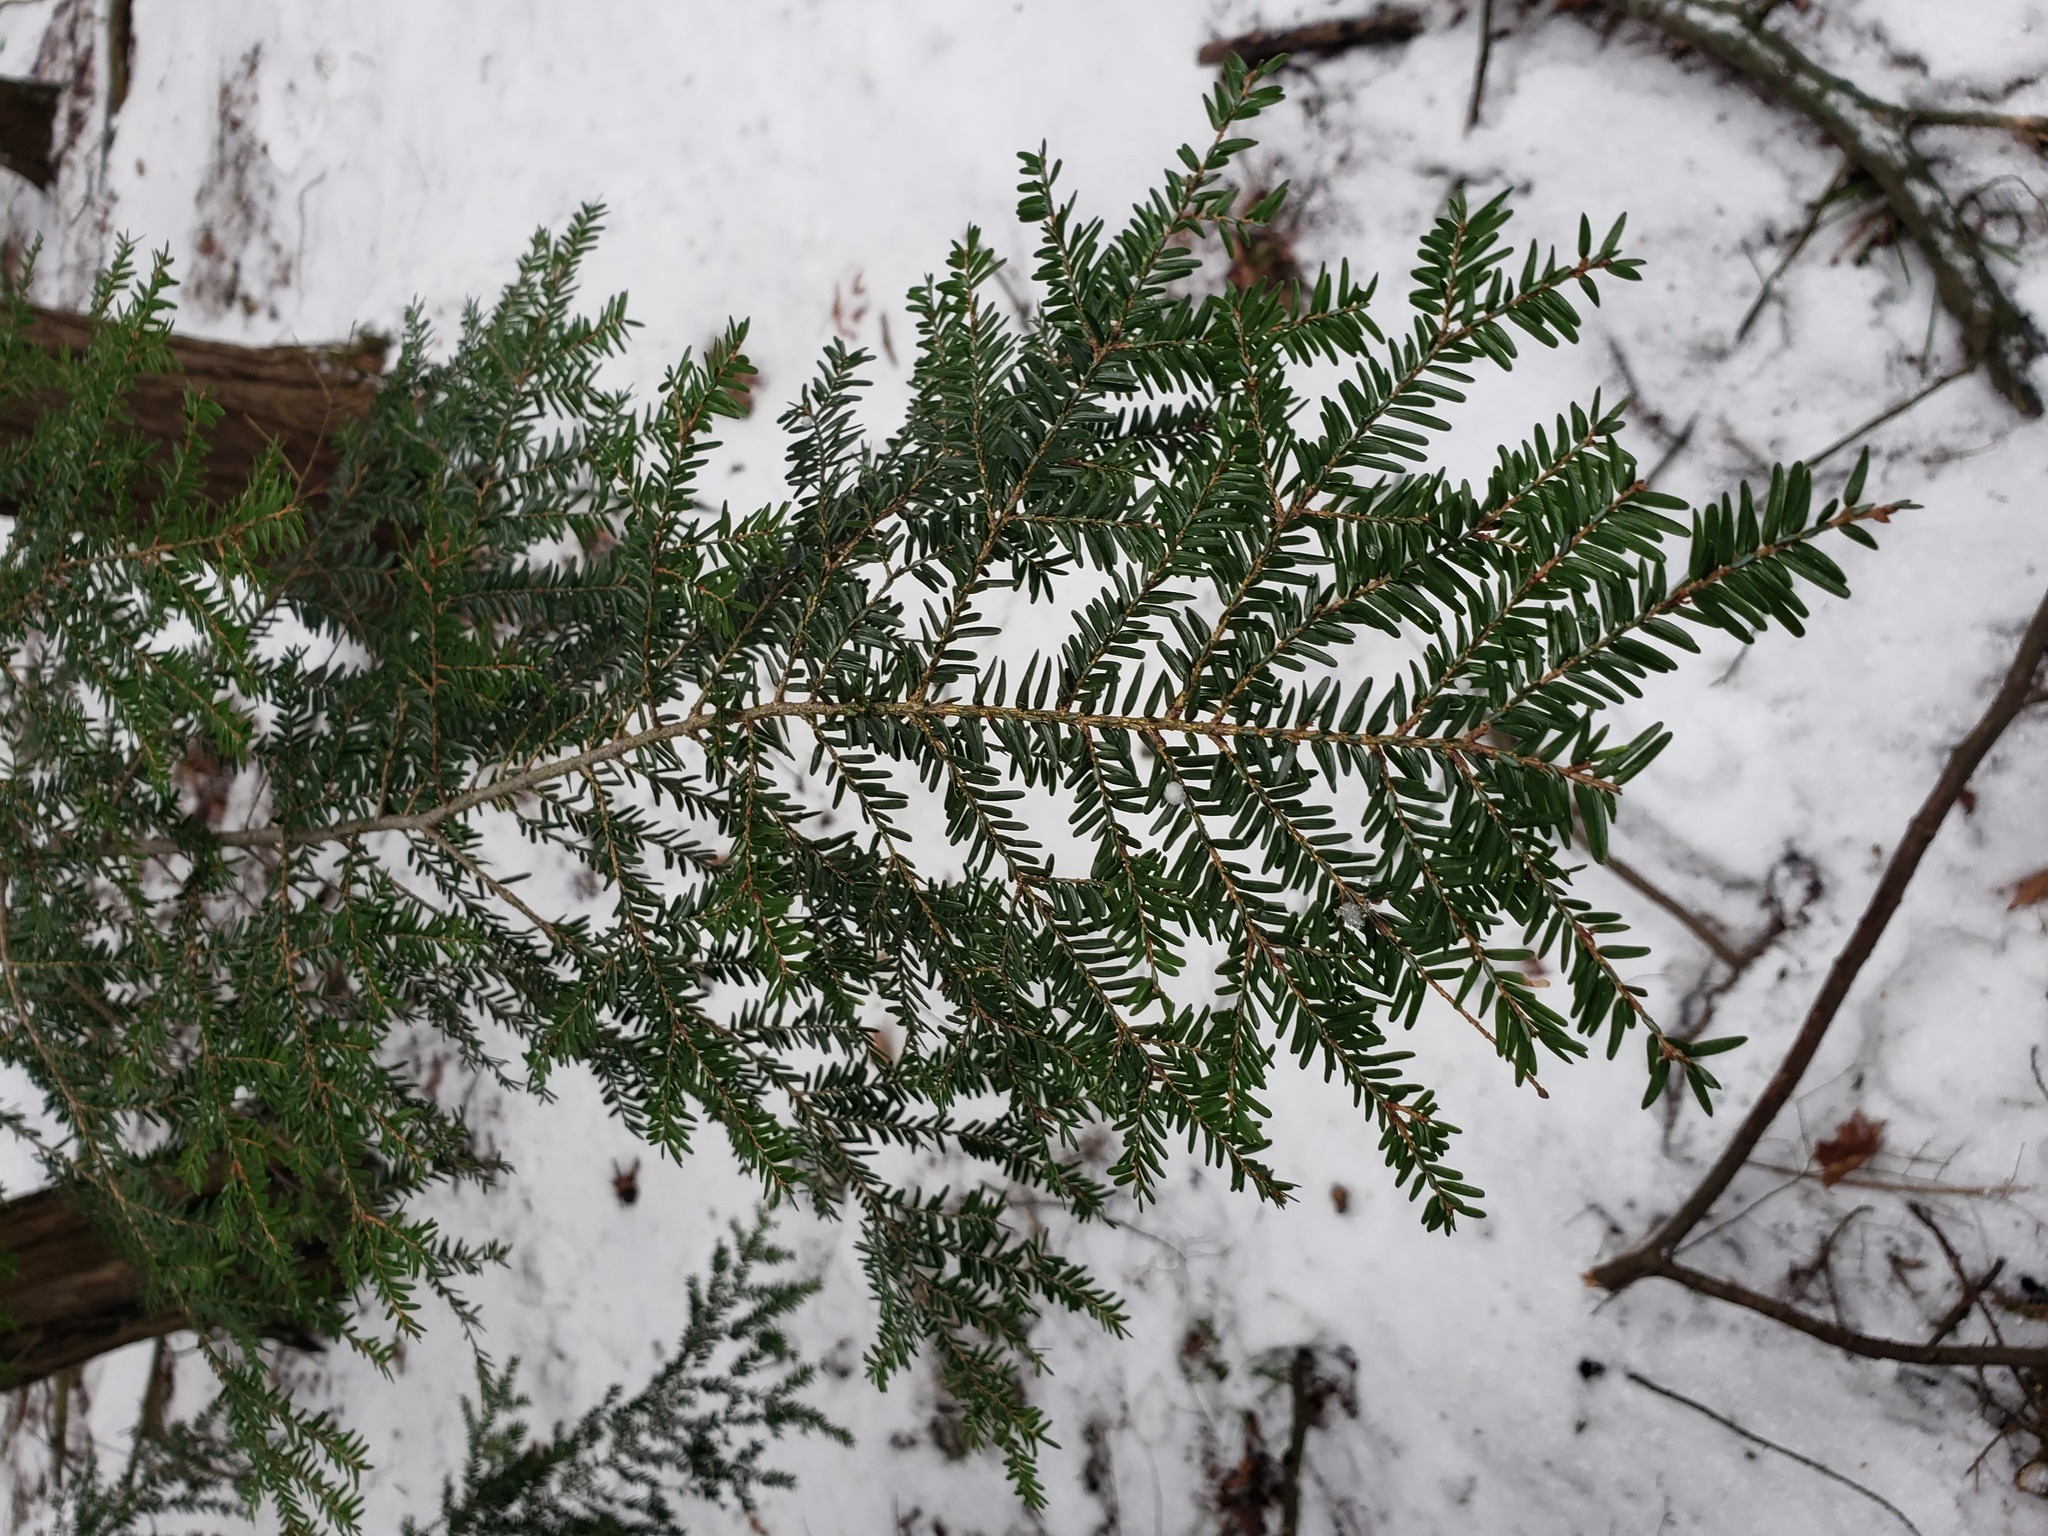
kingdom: Plantae
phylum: Tracheophyta
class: Pinopsida
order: Pinales
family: Pinaceae
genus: Tsuga
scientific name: Tsuga canadensis
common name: Eastern hemlock
